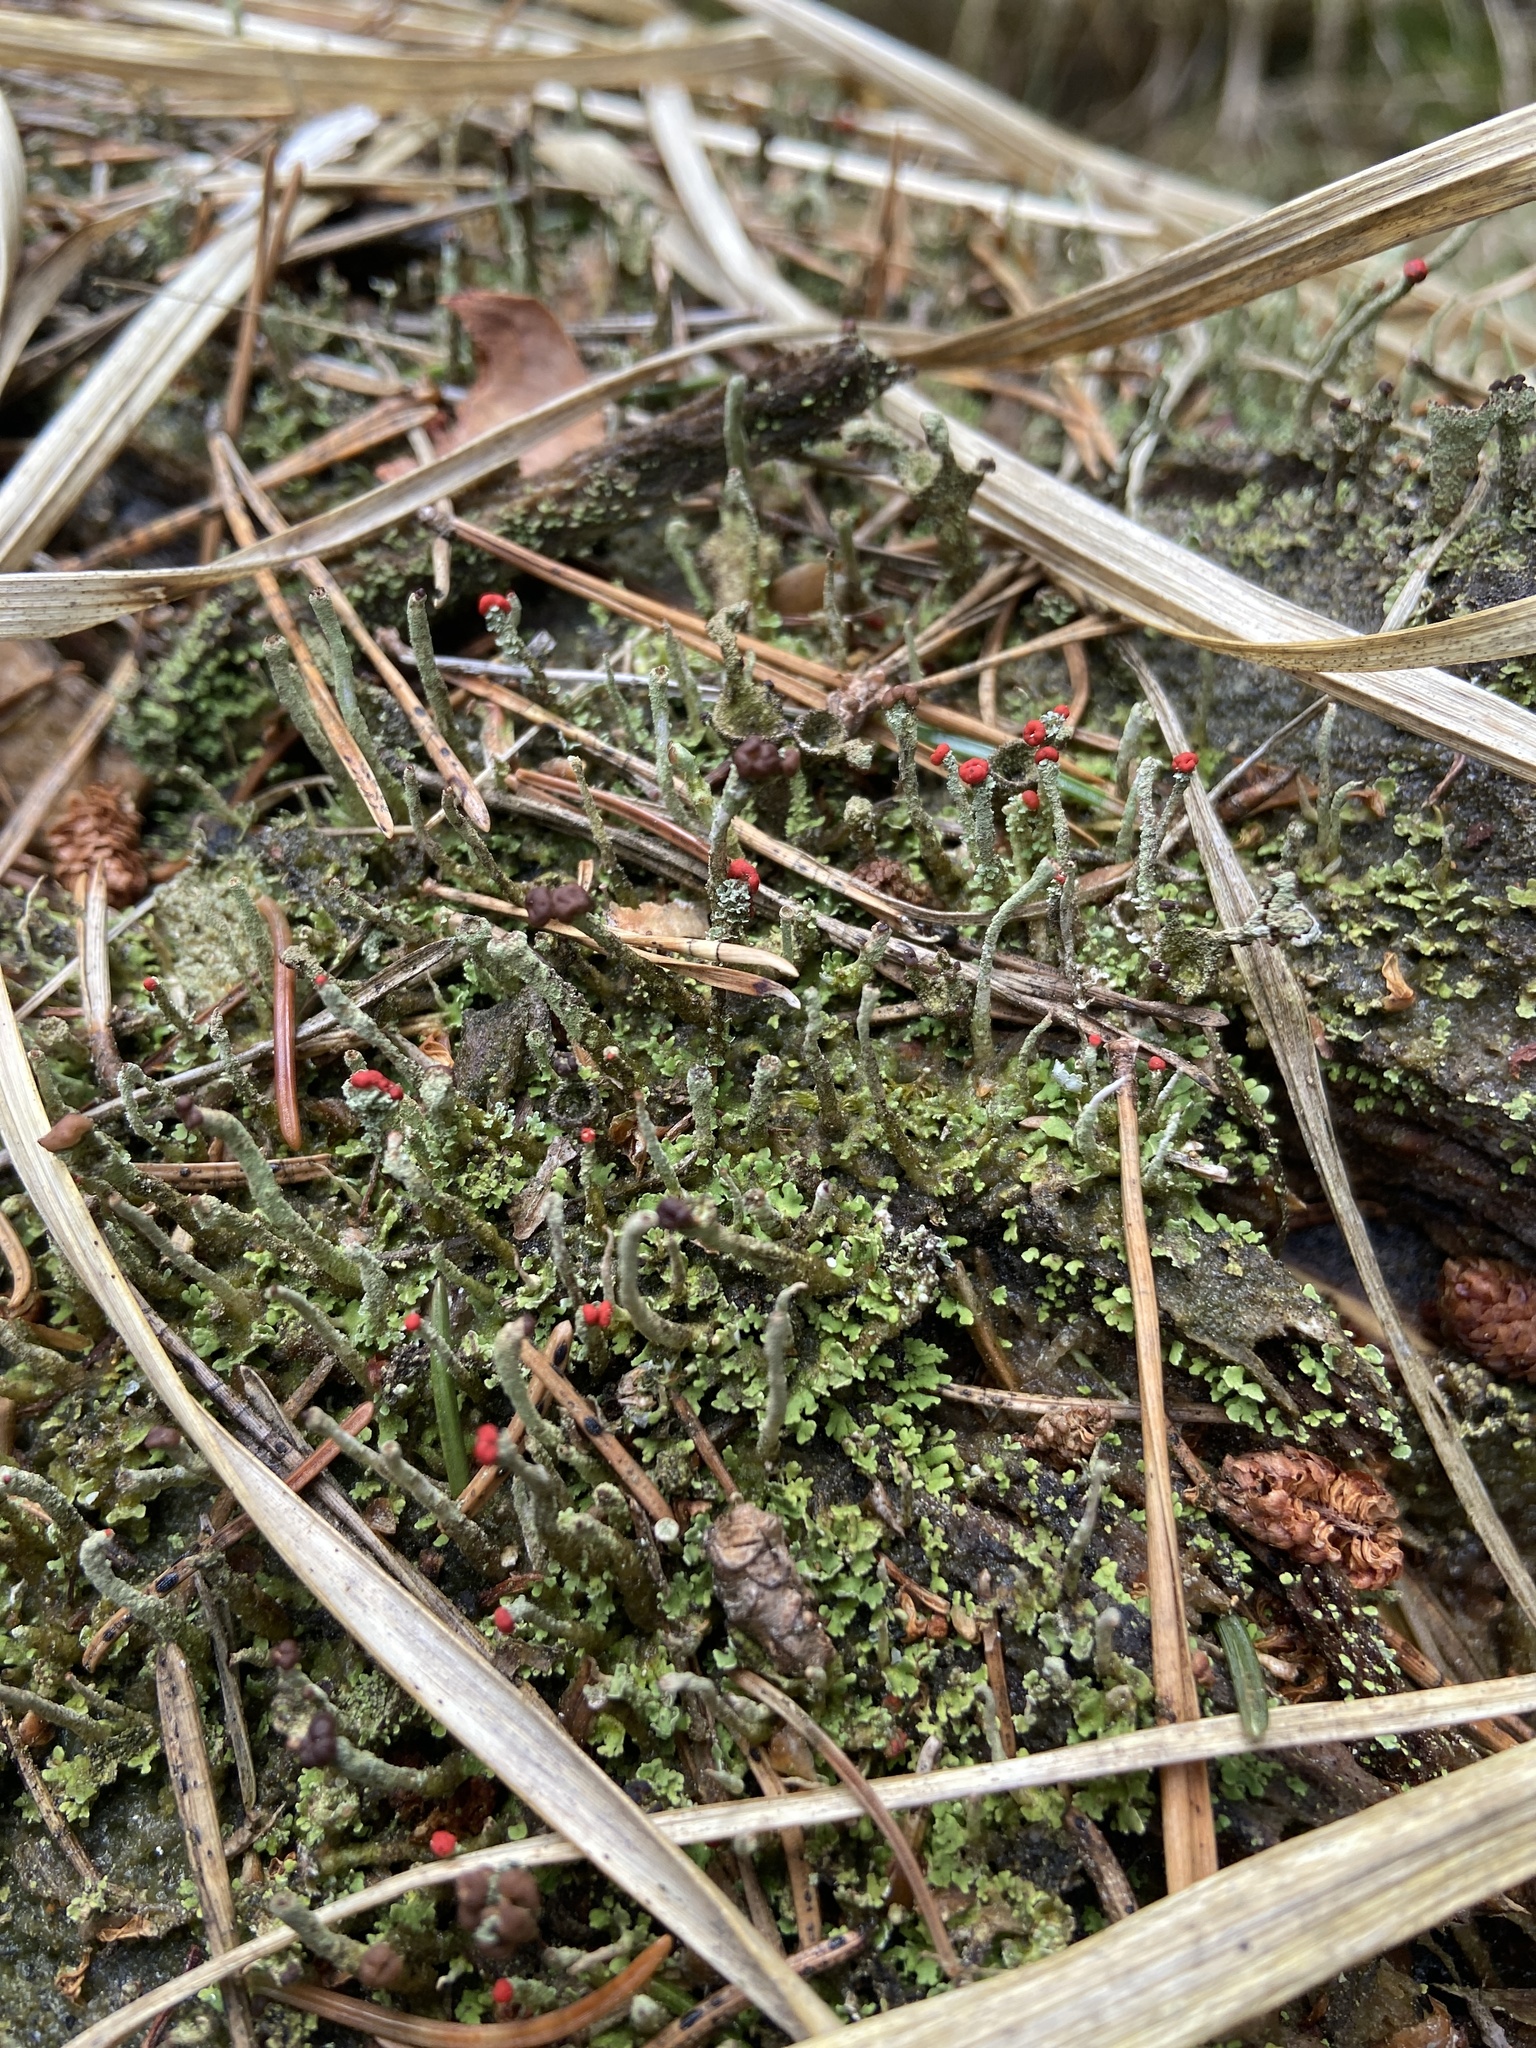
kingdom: Fungi
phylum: Ascomycota
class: Lecanoromycetes
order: Lecanorales
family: Cladoniaceae
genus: Cladonia
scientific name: Cladonia floerkeana
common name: Gritty british soldiers lichen
